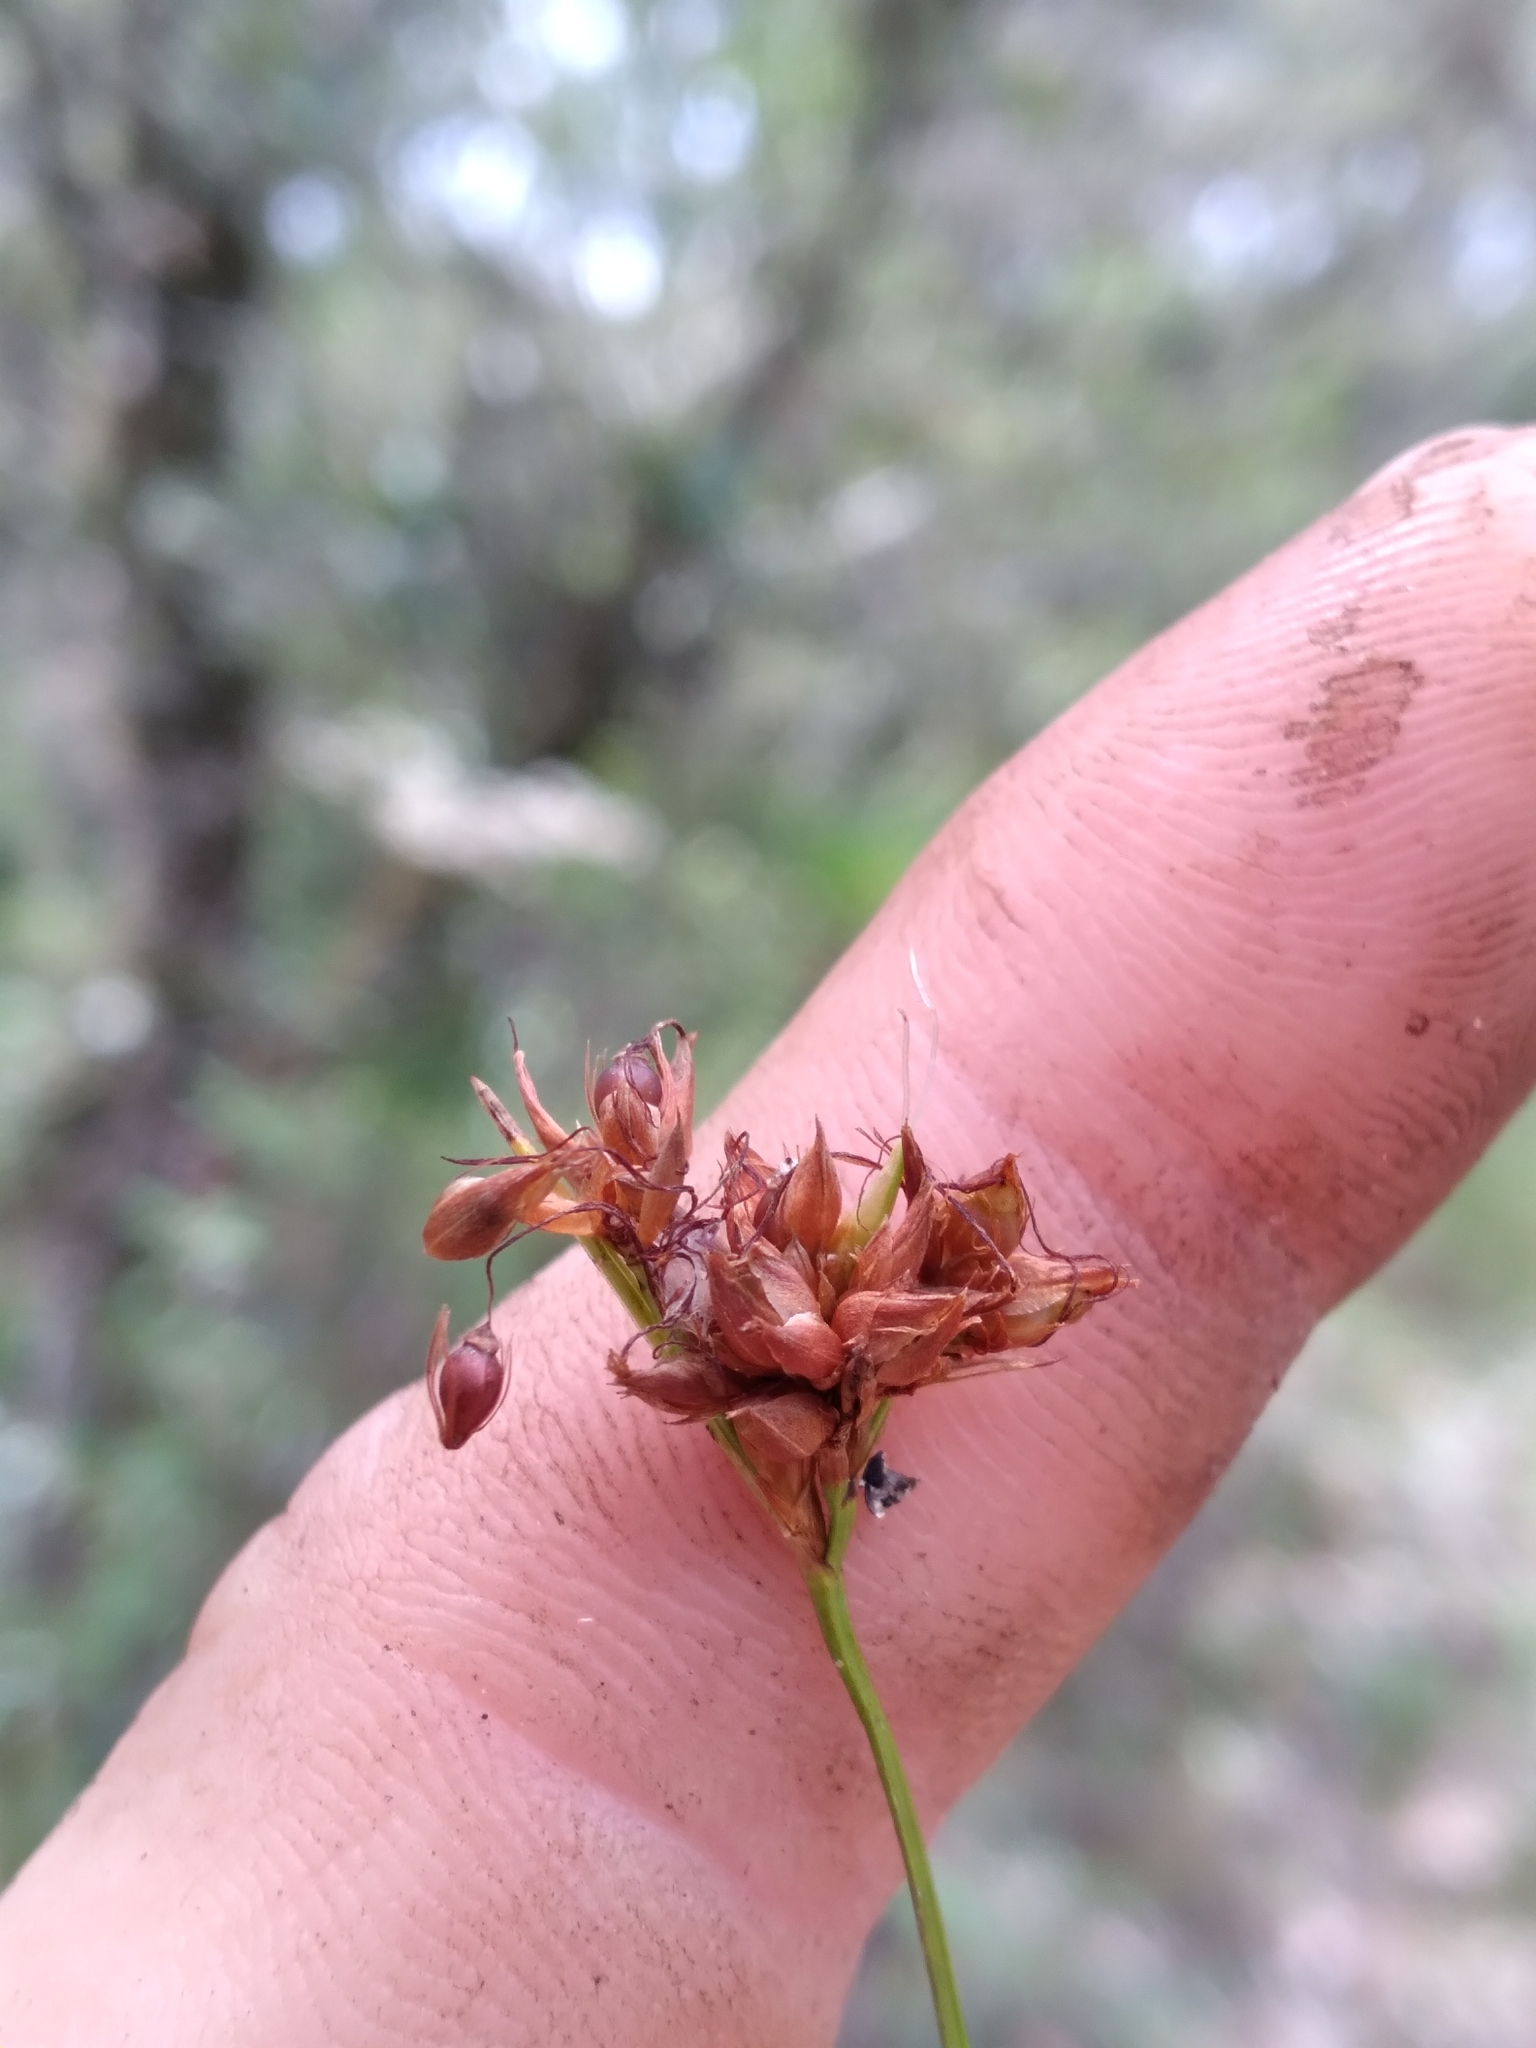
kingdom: Plantae
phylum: Tracheophyta
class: Liliopsida
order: Poales
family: Cyperaceae
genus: Rhynchospora
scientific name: Rhynchospora grayi
